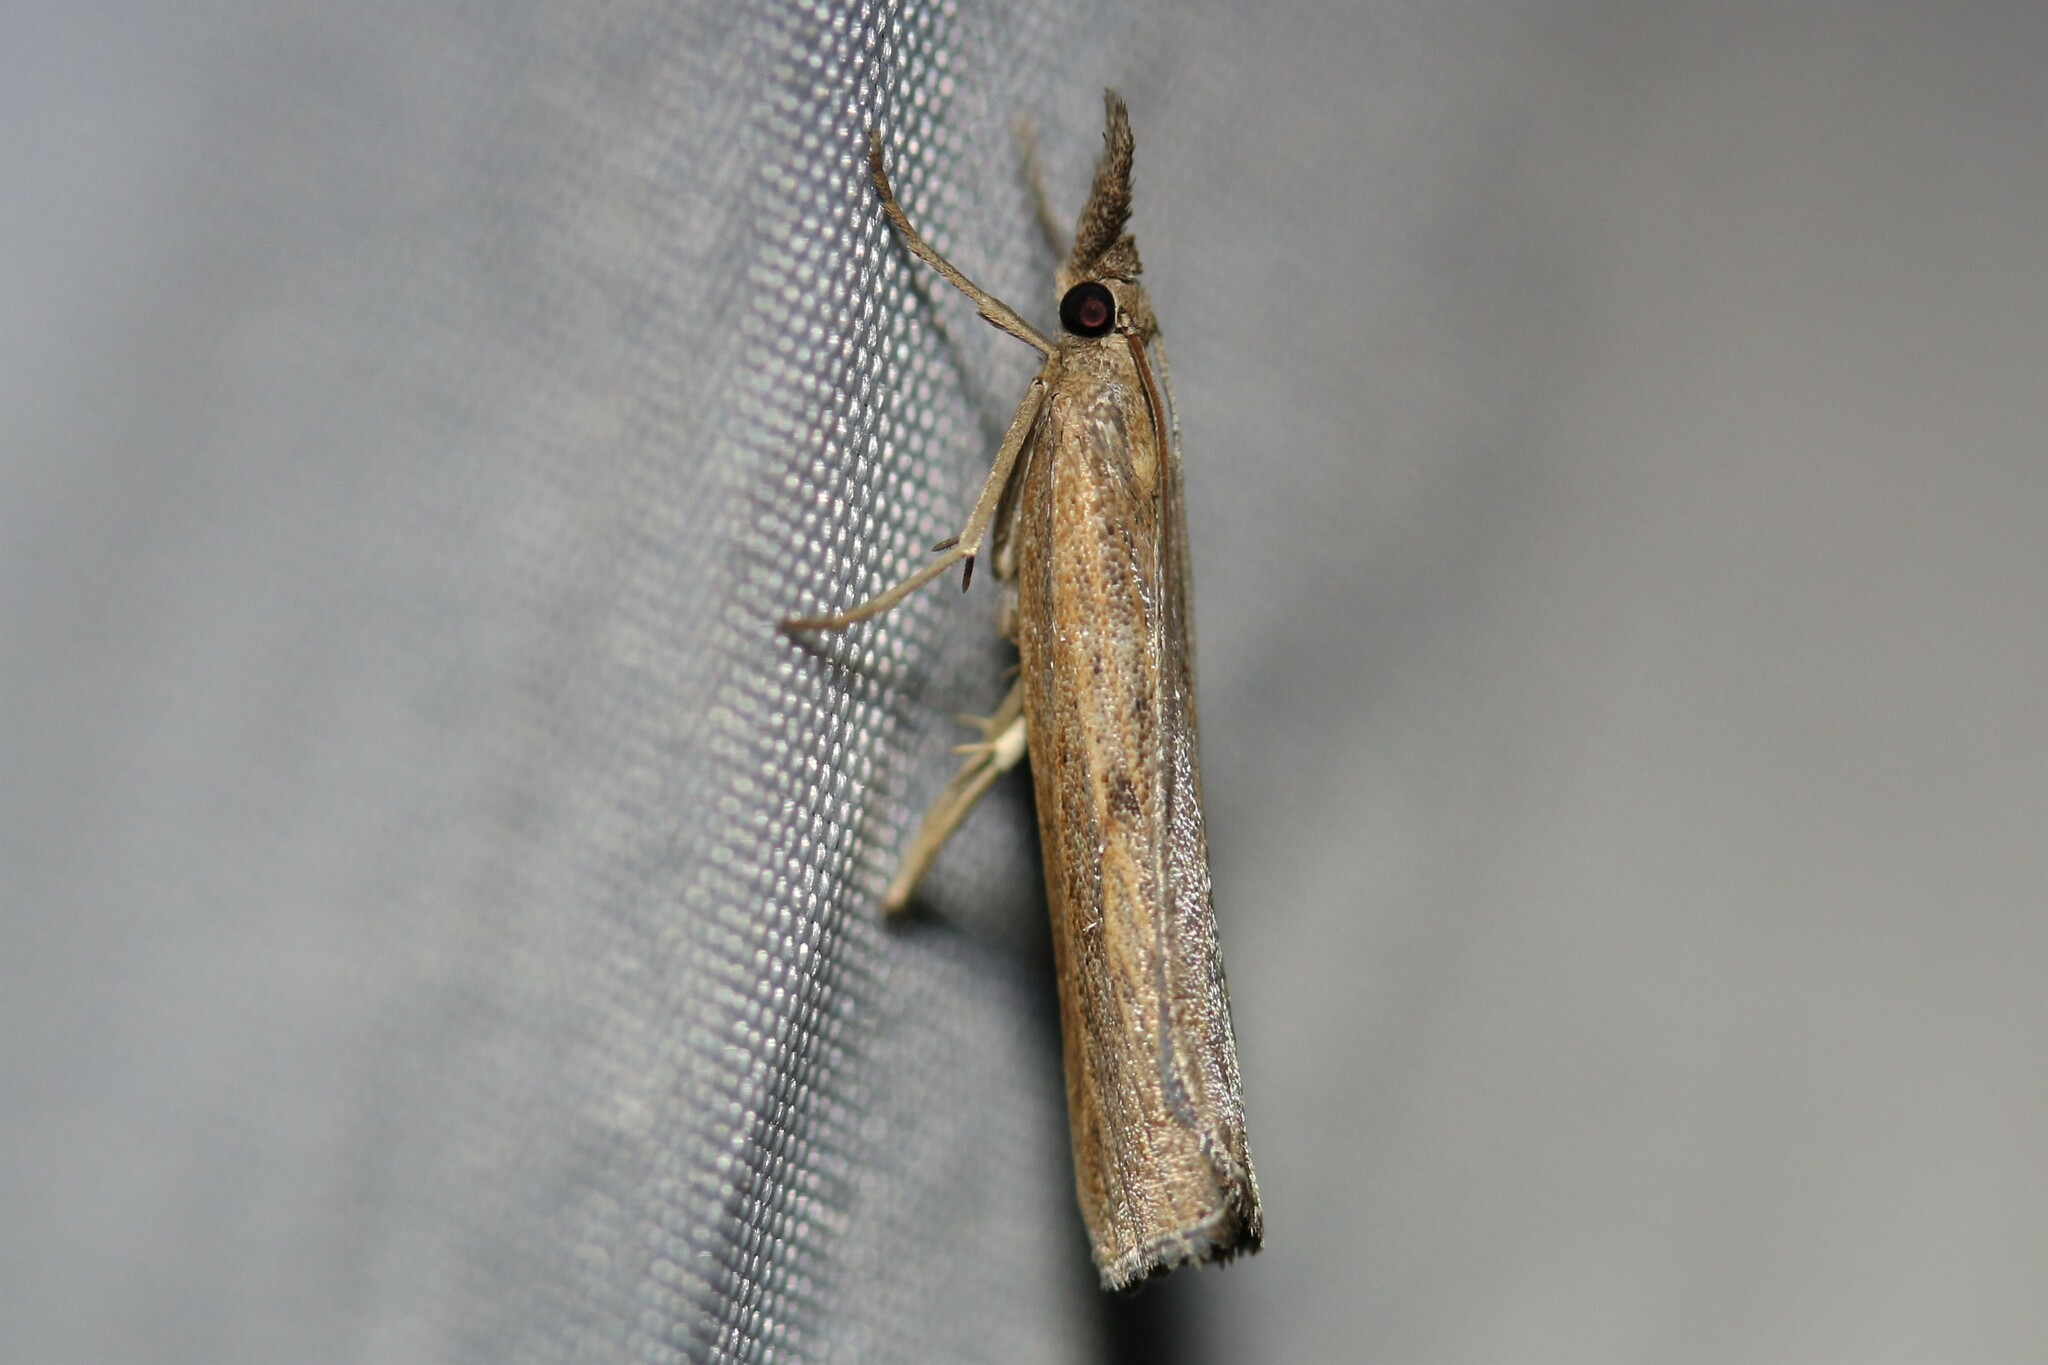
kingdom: Animalia
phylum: Arthropoda
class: Insecta
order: Lepidoptera
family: Crambidae
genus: Pediasia
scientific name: Pediasia contaminella
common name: Waste grass-veneer
